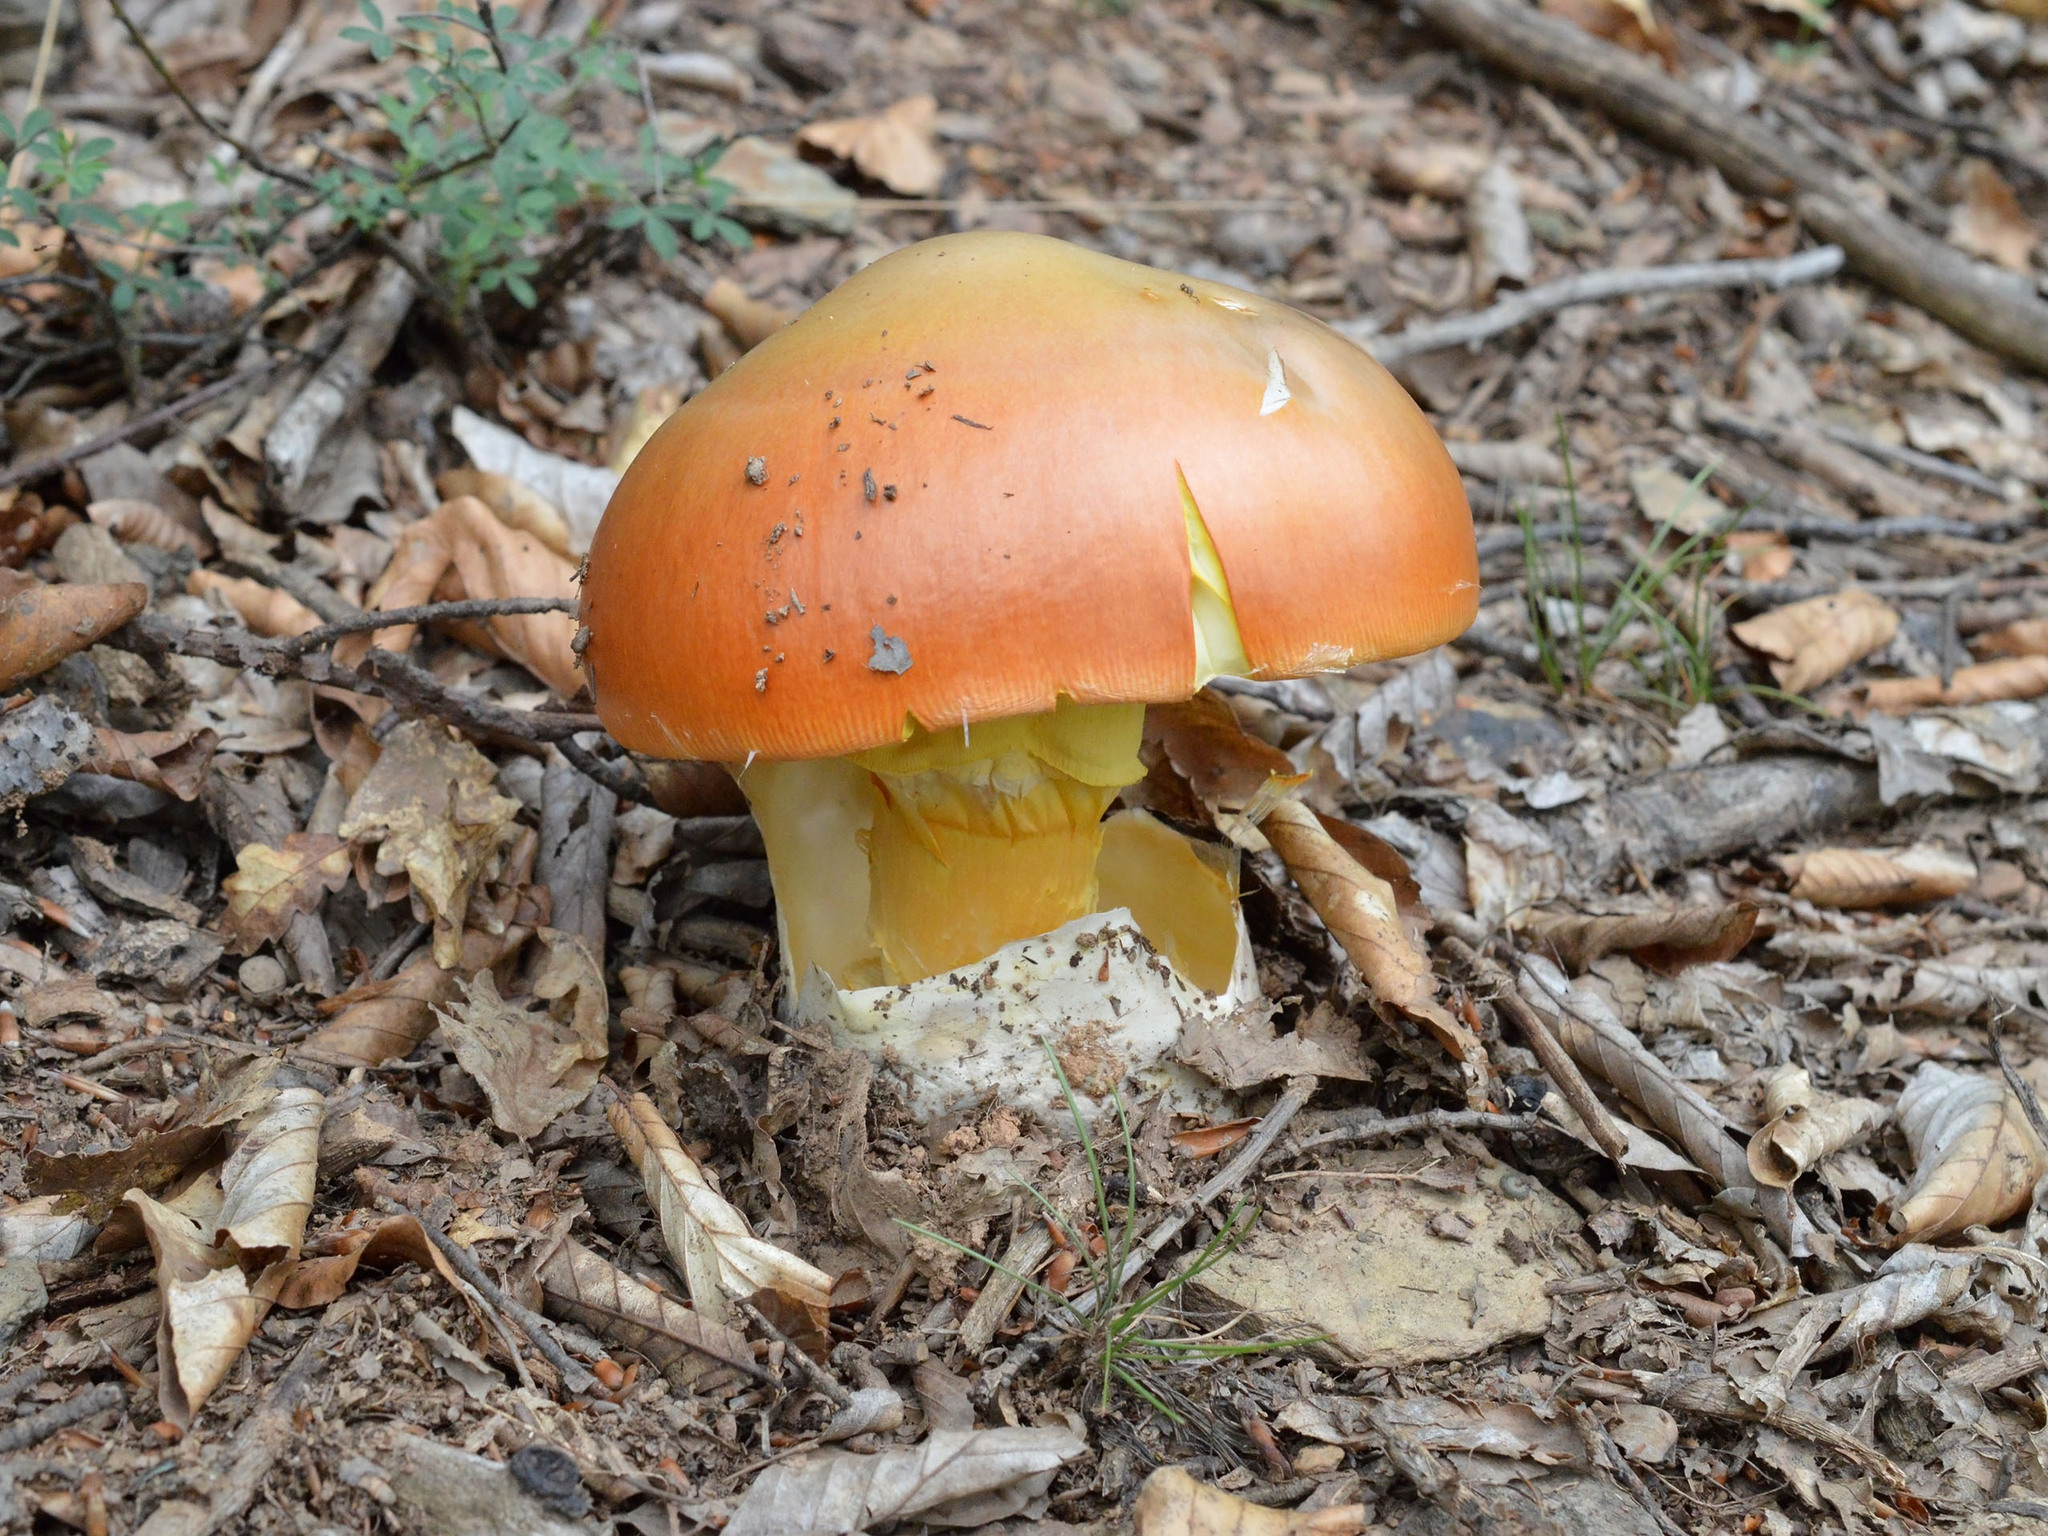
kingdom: Fungi
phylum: Basidiomycota
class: Agaricomycetes
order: Agaricales
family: Amanitaceae
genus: Amanita
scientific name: Amanita caesarea
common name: Caesar's amanita
